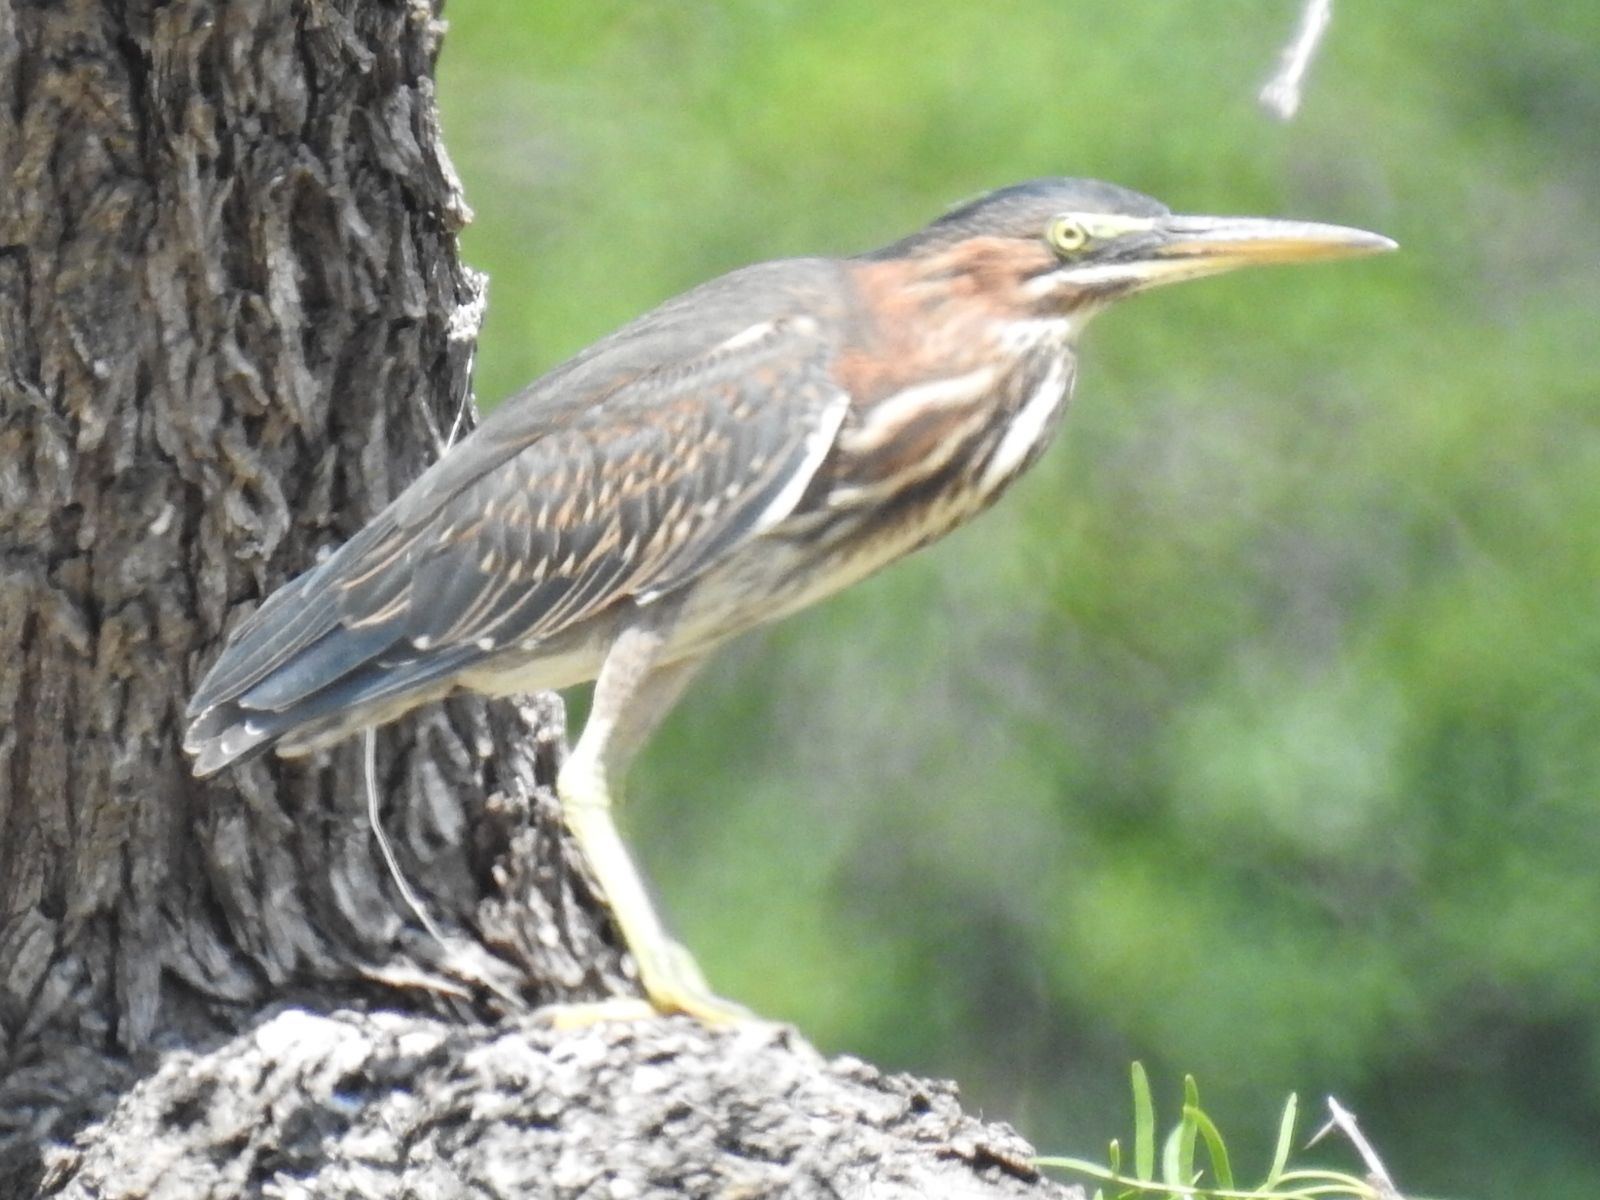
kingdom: Animalia
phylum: Chordata
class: Aves
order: Pelecaniformes
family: Ardeidae
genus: Butorides
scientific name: Butorides virescens
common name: Green heron
